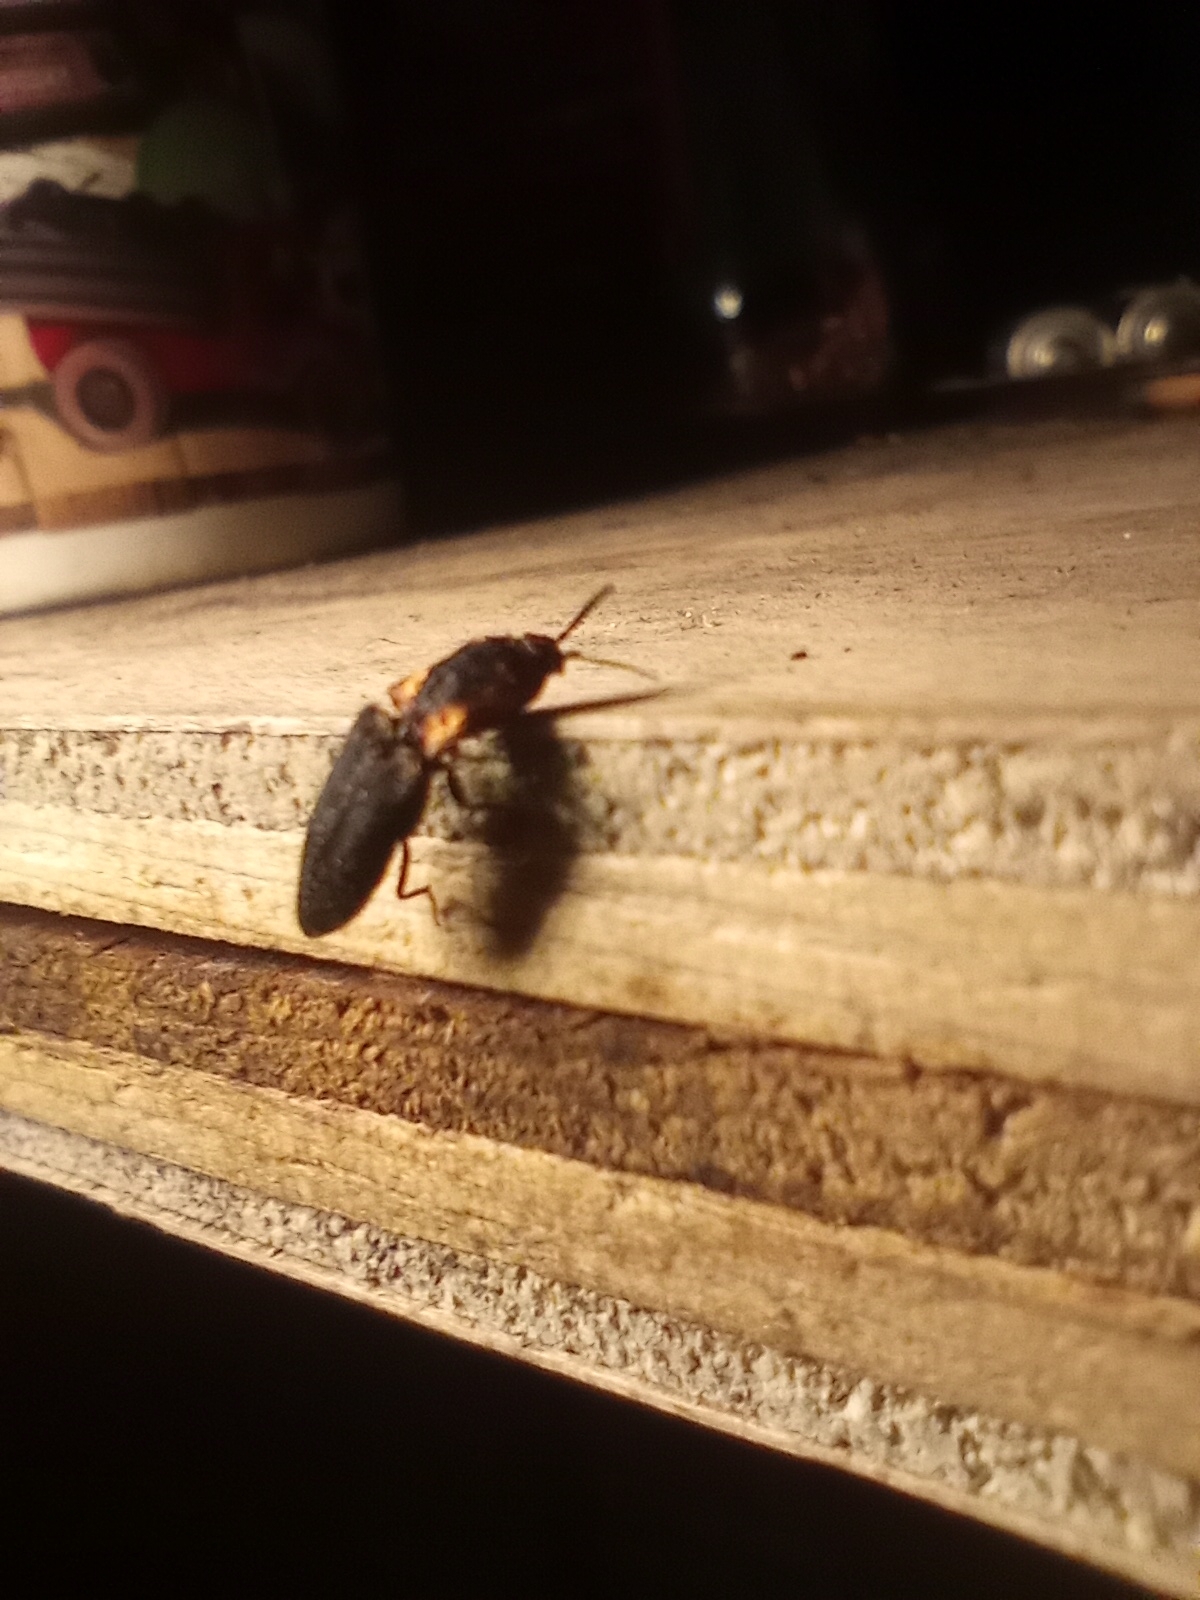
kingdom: Animalia
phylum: Arthropoda
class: Insecta
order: Coleoptera
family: Elateridae
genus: Lacon
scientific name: Lacon discoideus
